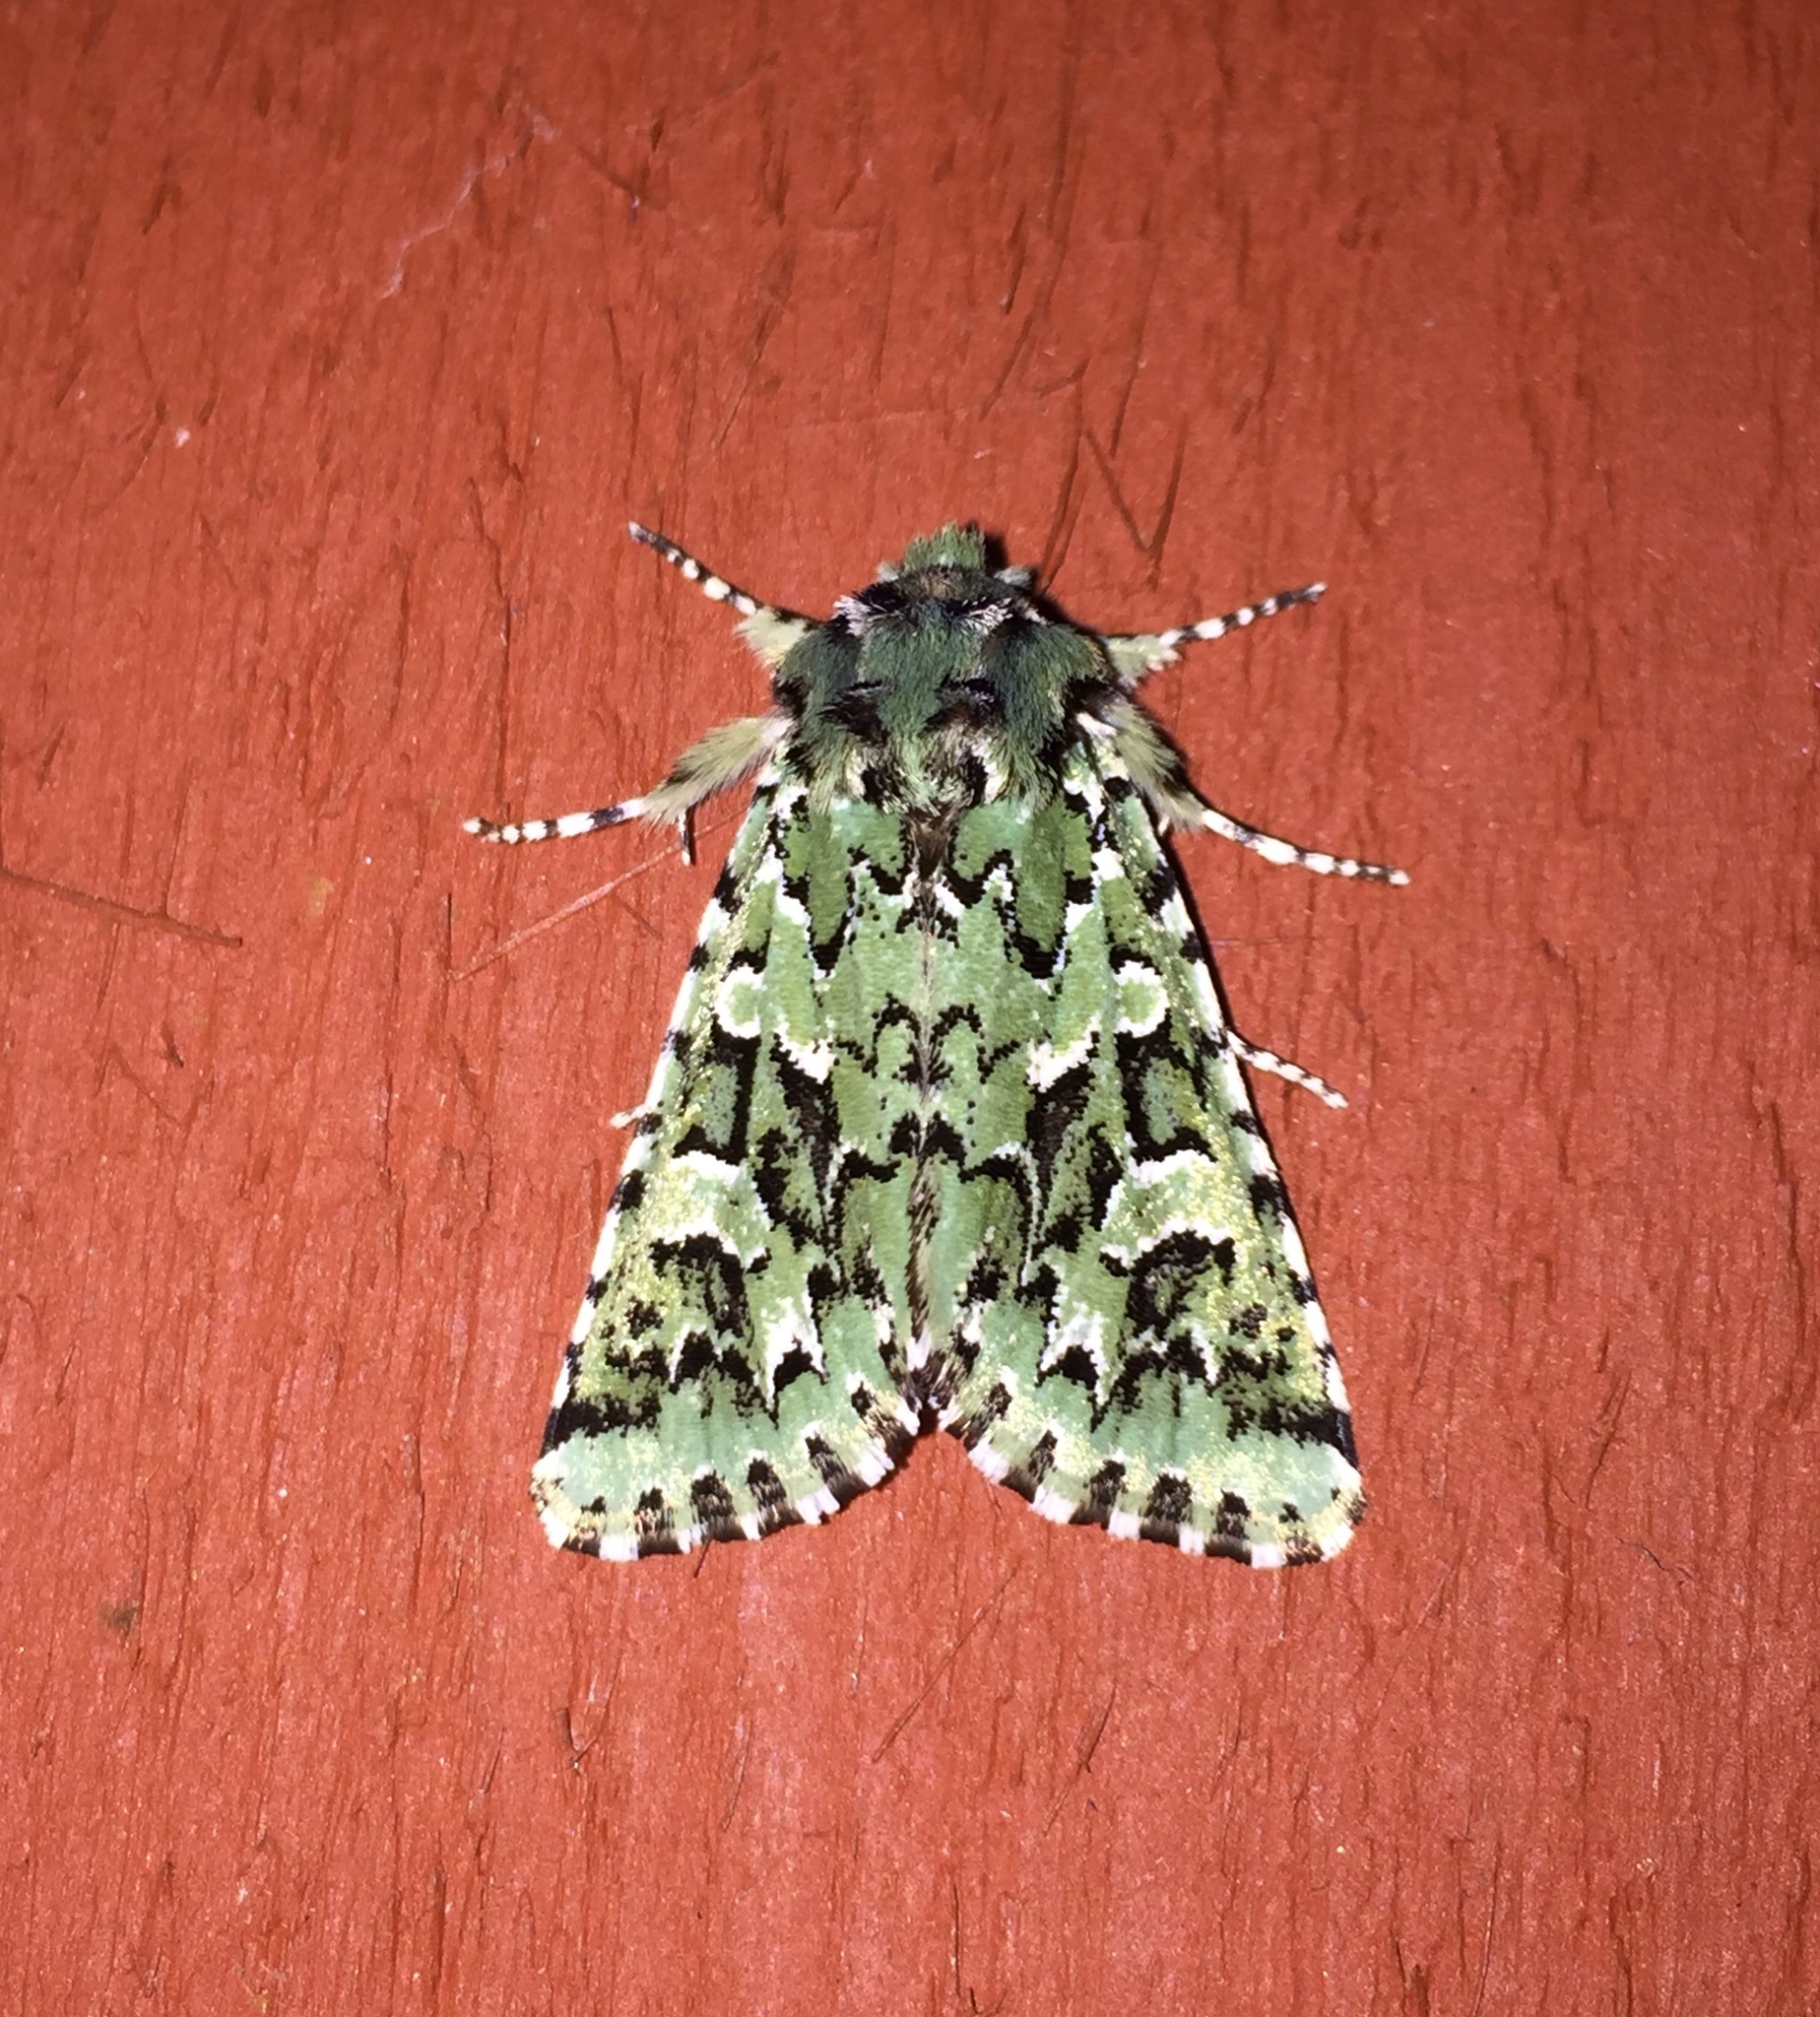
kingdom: Animalia
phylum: Arthropoda
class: Insecta
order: Lepidoptera
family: Noctuidae
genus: Feralia
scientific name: Feralia comstocki
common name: Comstock's sallow
